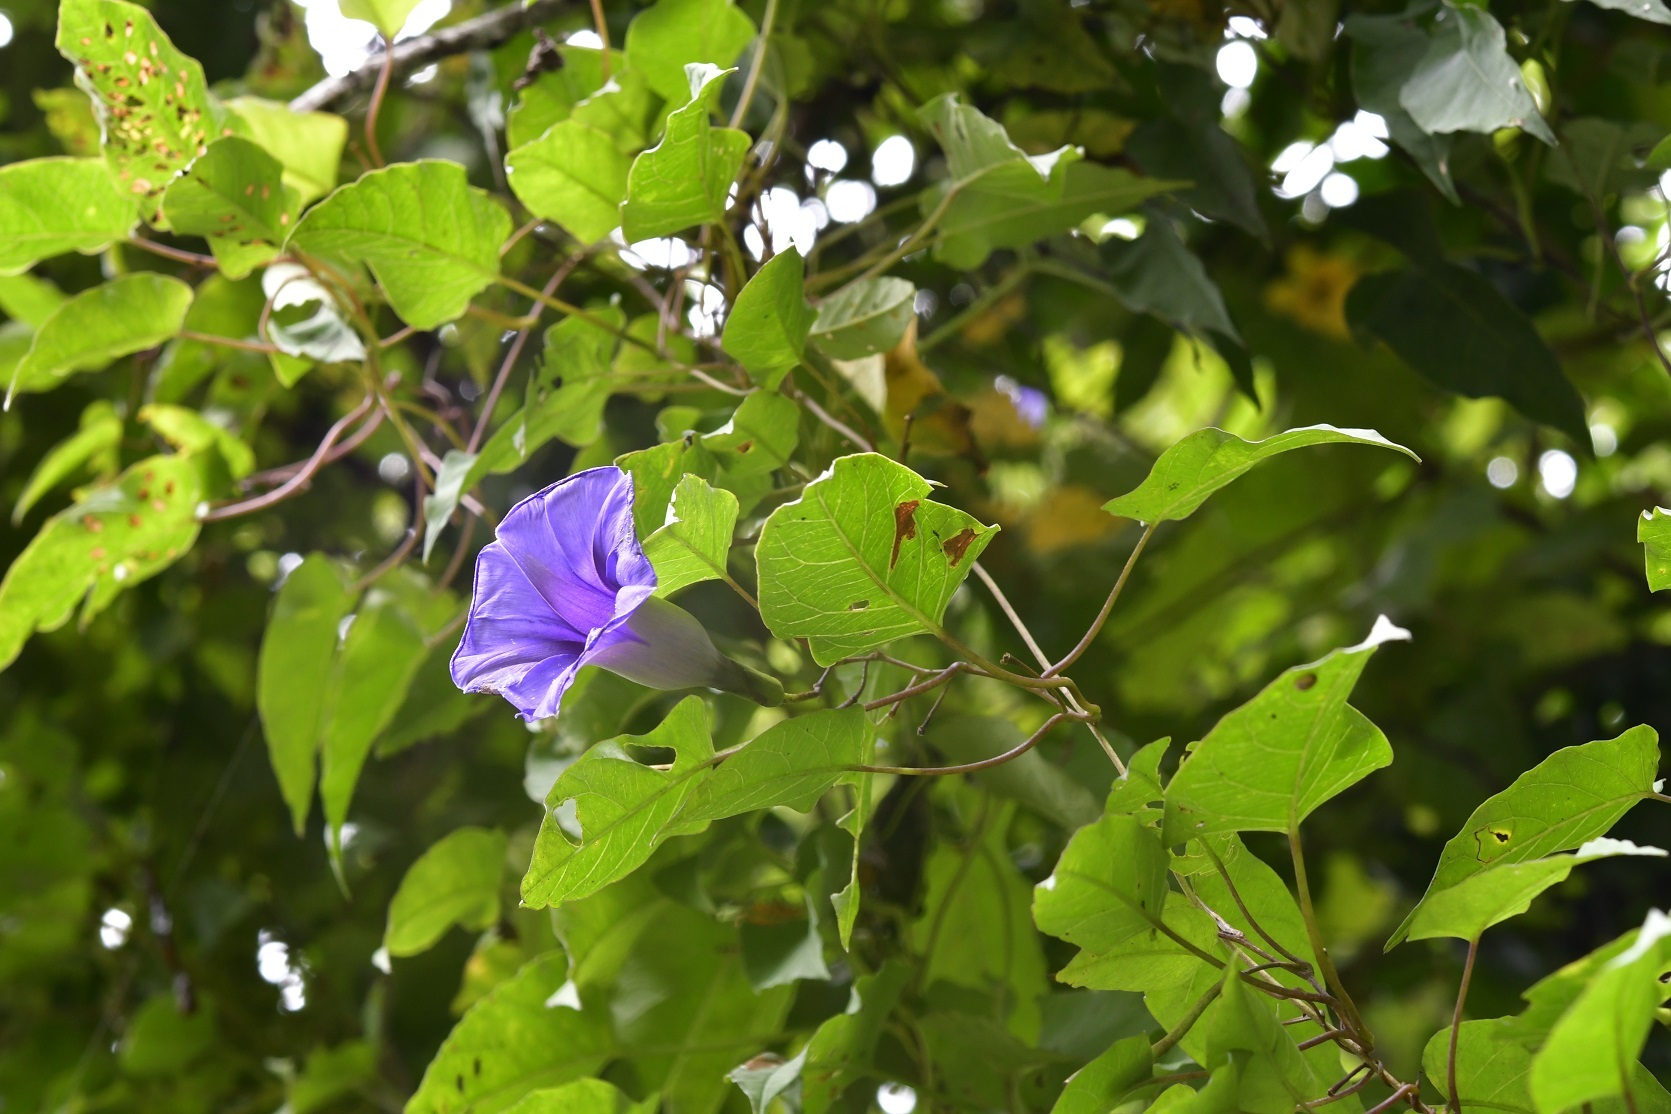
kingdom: Plantae
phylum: Tracheophyta
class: Magnoliopsida
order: Solanales
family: Convolvulaceae
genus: Ipomoea
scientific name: Ipomoea lindenii
